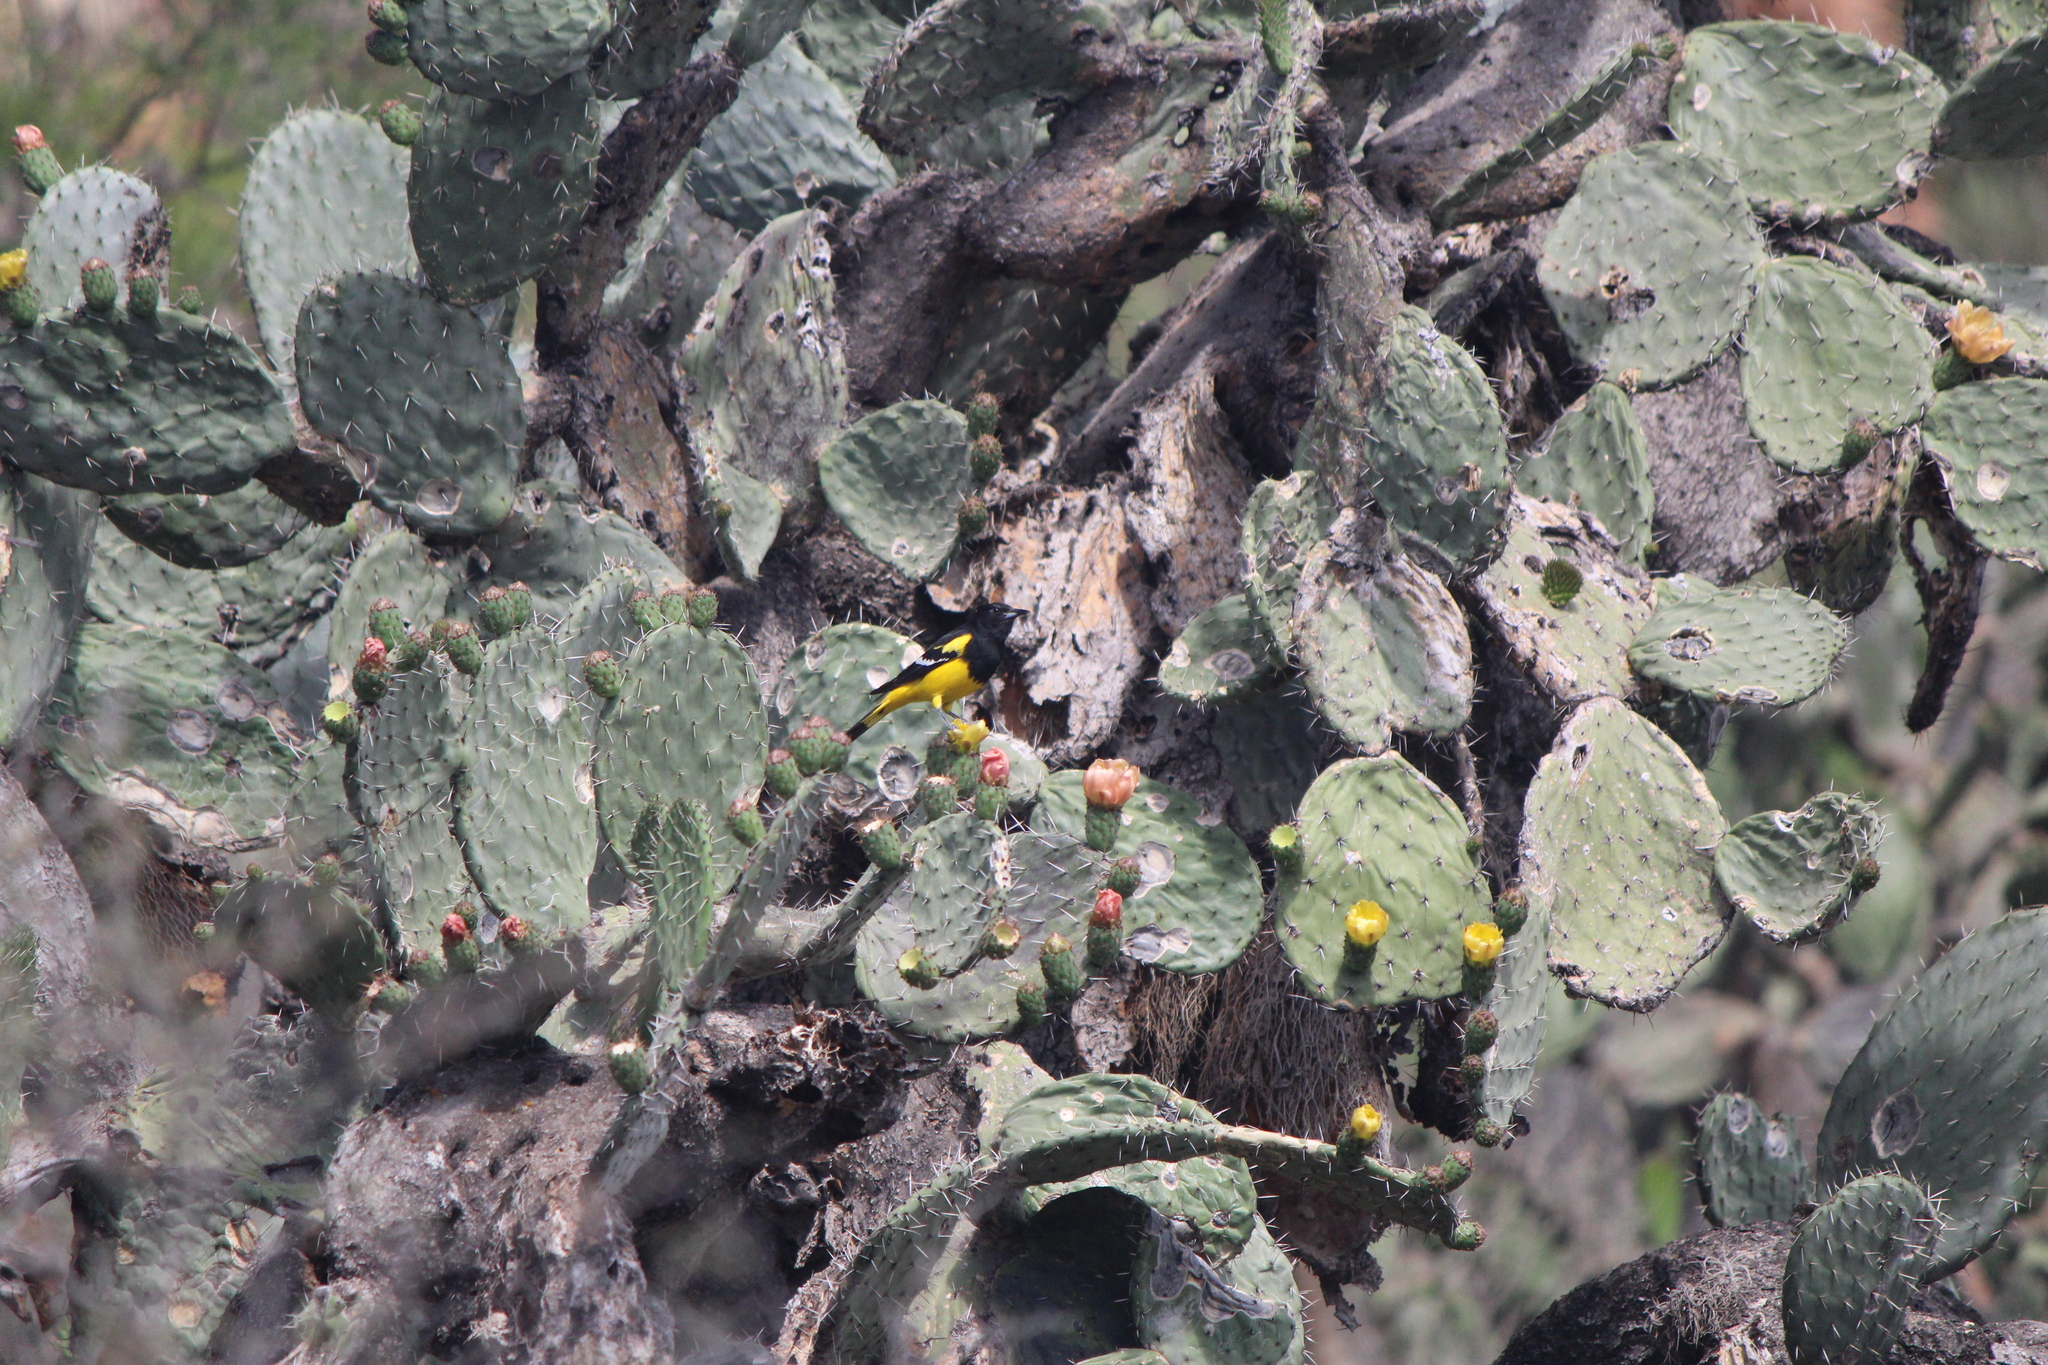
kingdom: Animalia
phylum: Chordata
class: Aves
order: Passeriformes
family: Icteridae
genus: Icterus
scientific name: Icterus parisorum
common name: Scott's oriole
